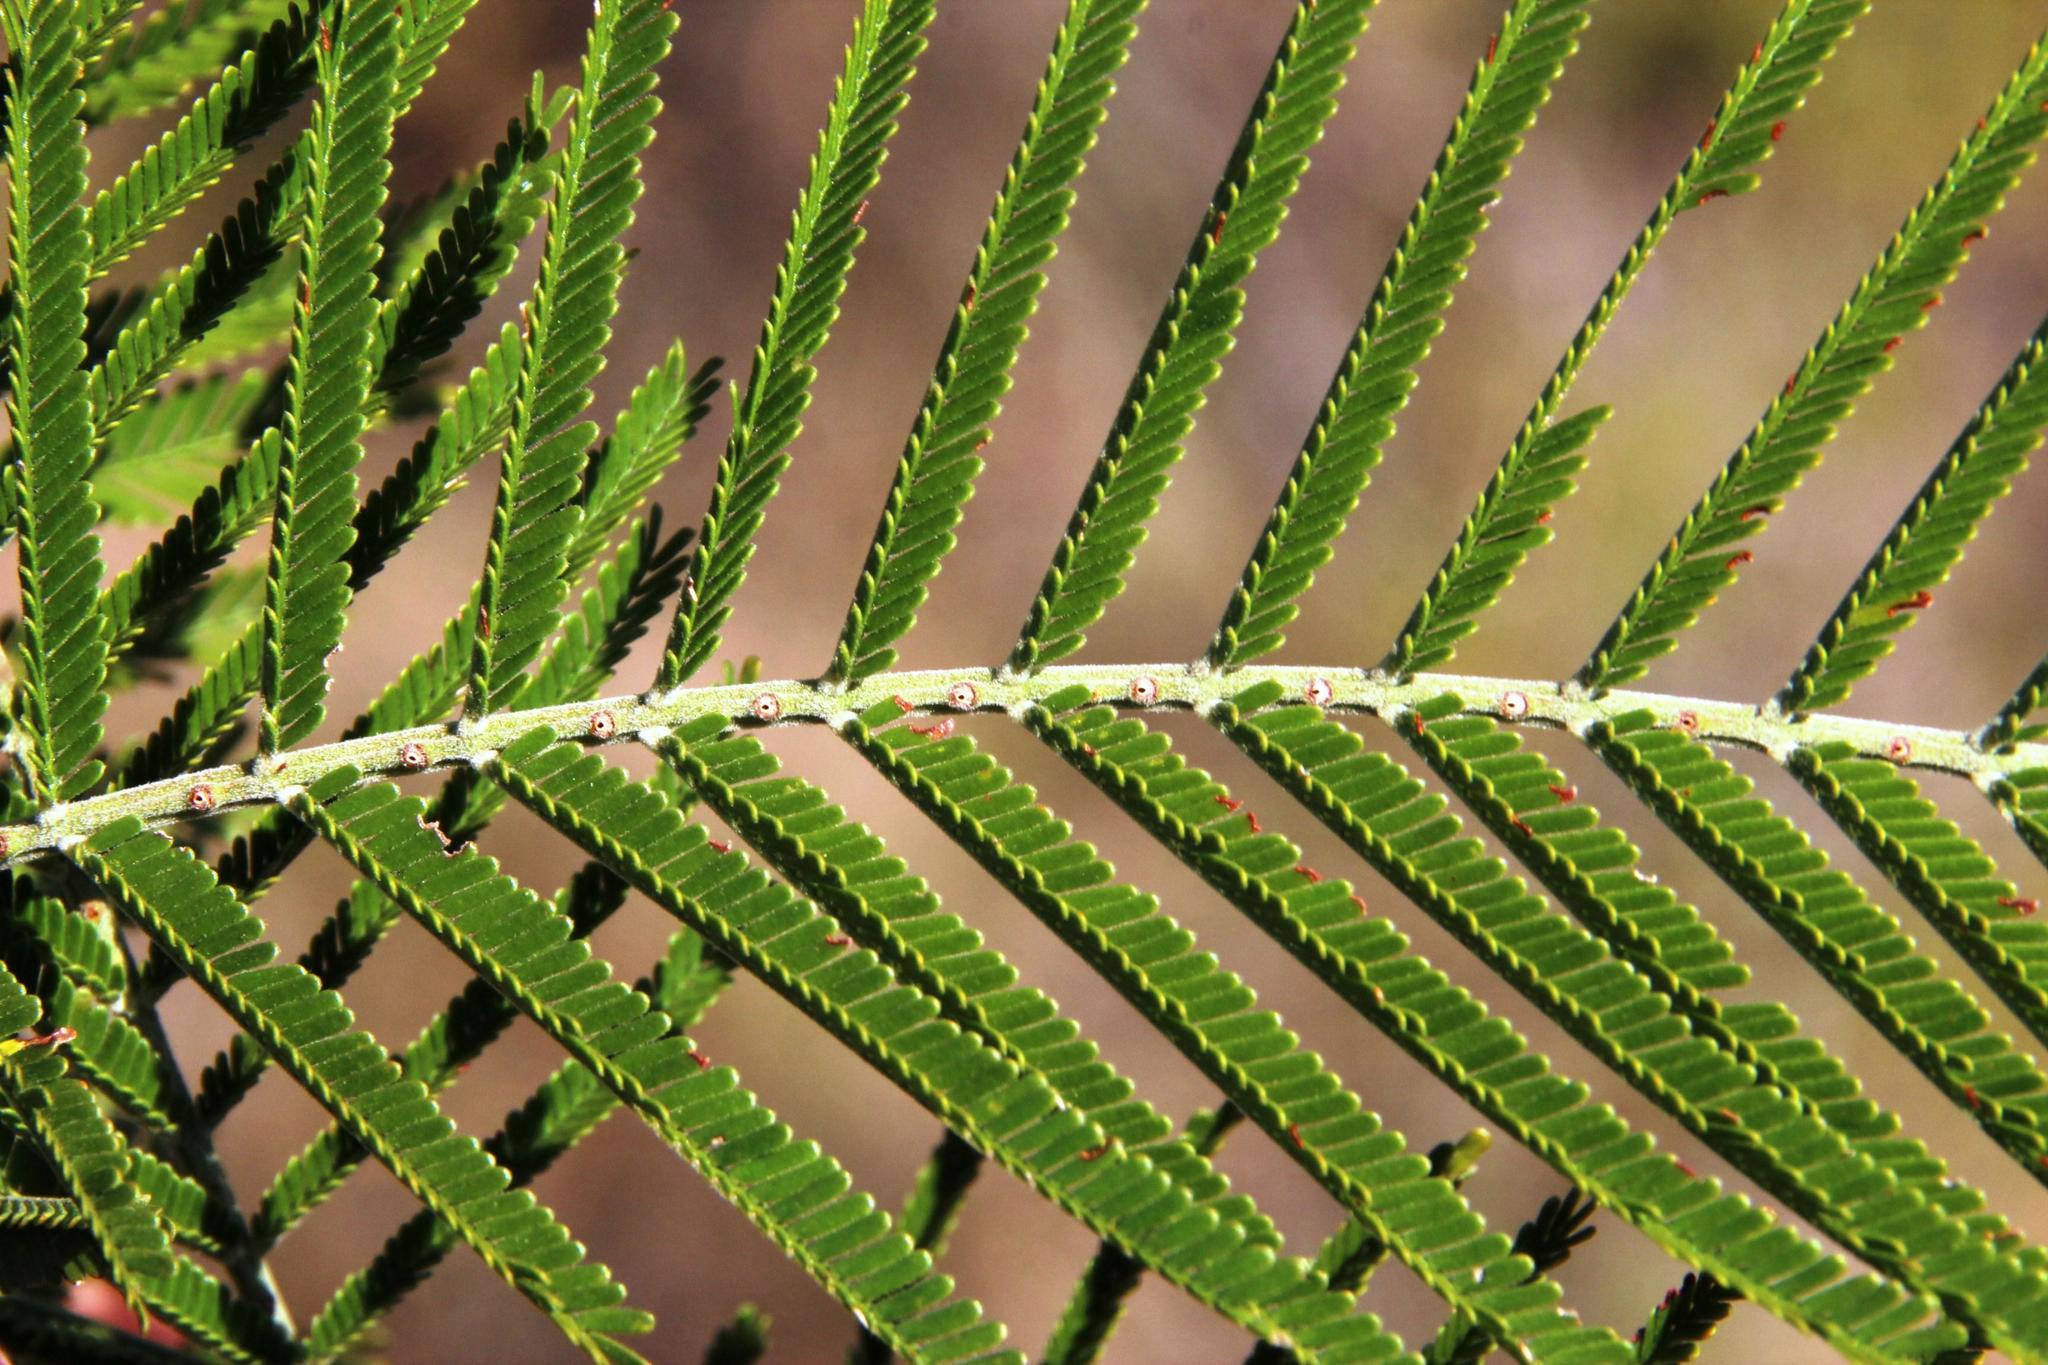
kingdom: Plantae
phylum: Tracheophyta
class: Magnoliopsida
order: Fabales
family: Fabaceae
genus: Acacia
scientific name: Acacia mearnsii
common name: Black wattle
